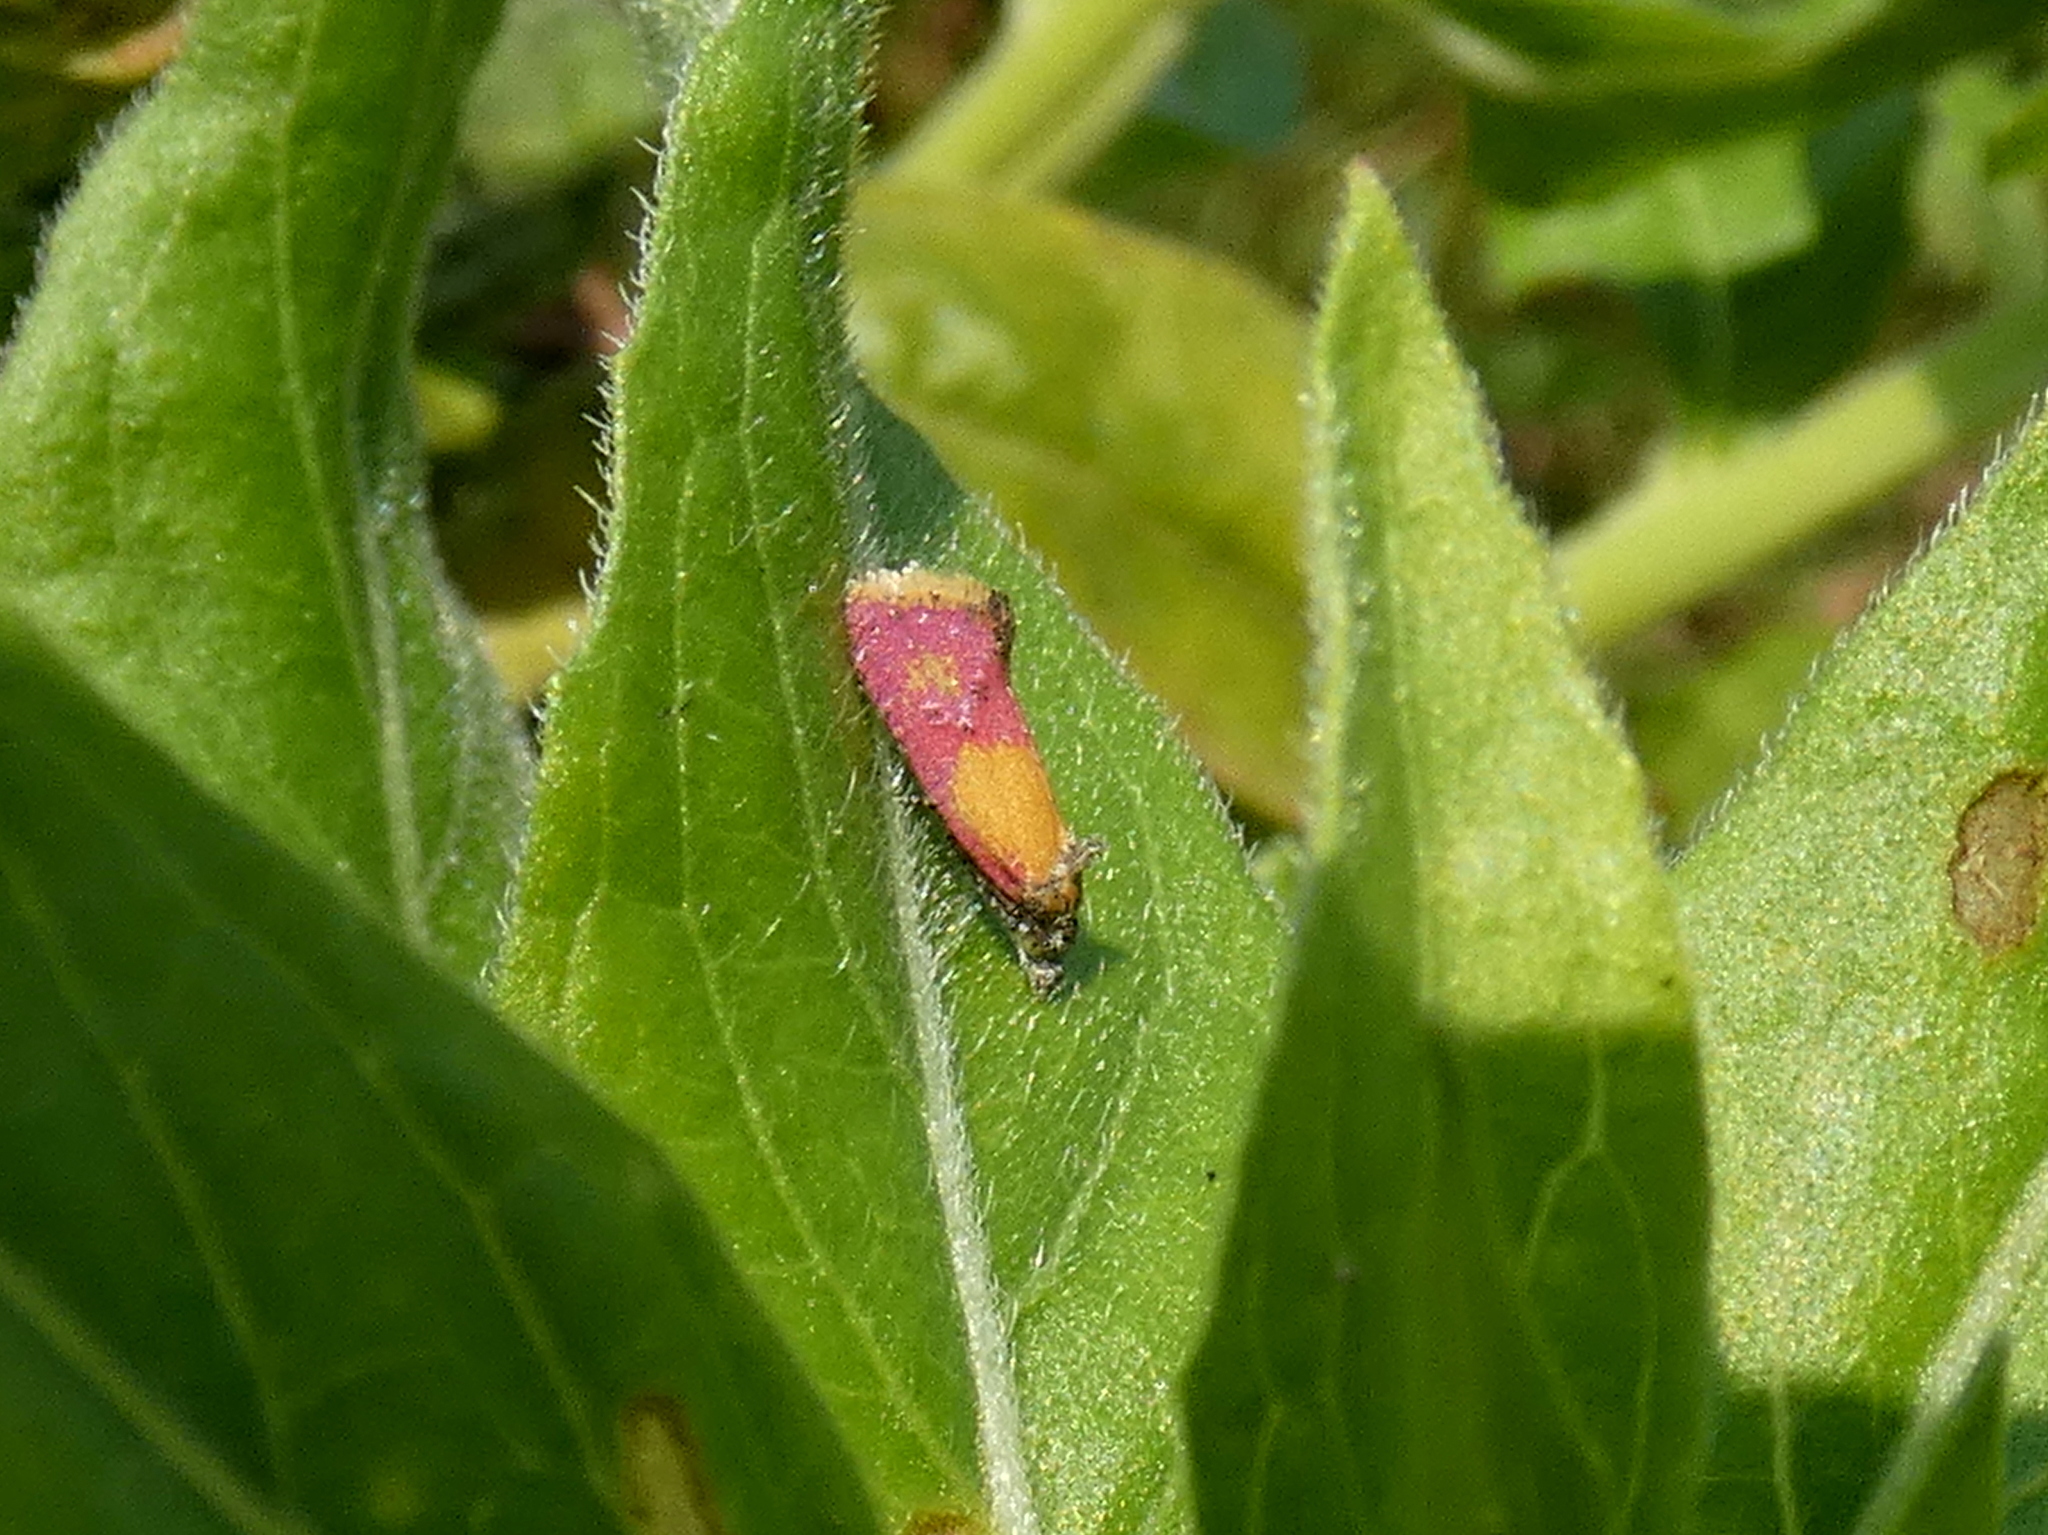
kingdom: Animalia
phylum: Arthropoda
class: Insecta
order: Lepidoptera
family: Tortricidae
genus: Conchylis
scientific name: Conchylis oenotherana
